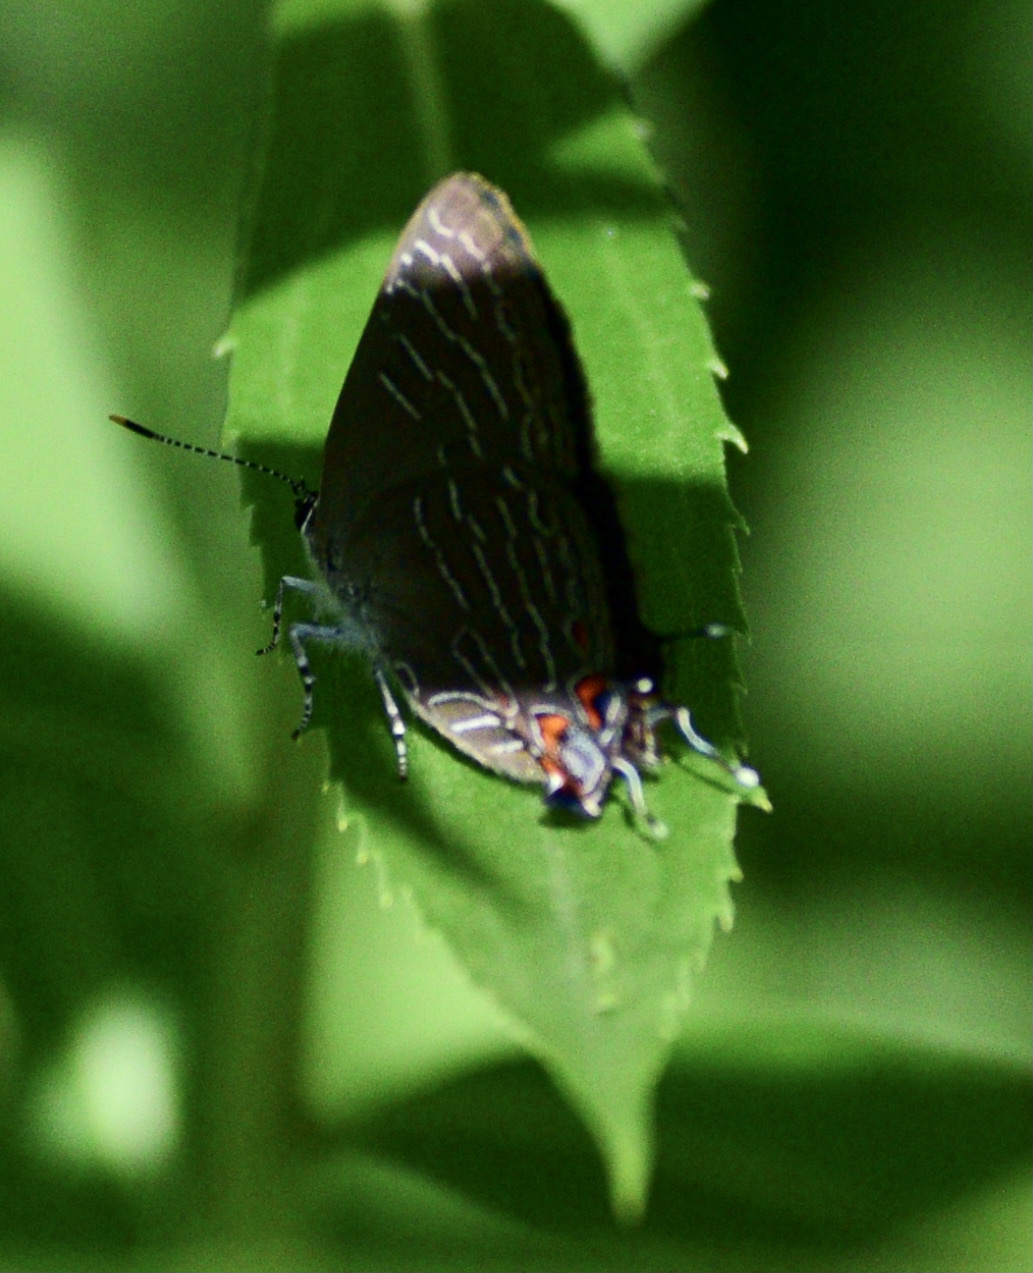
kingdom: Animalia
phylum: Arthropoda
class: Insecta
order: Lepidoptera
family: Lycaenidae
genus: Satyrium
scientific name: Satyrium liparops
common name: Striped hairstreak
